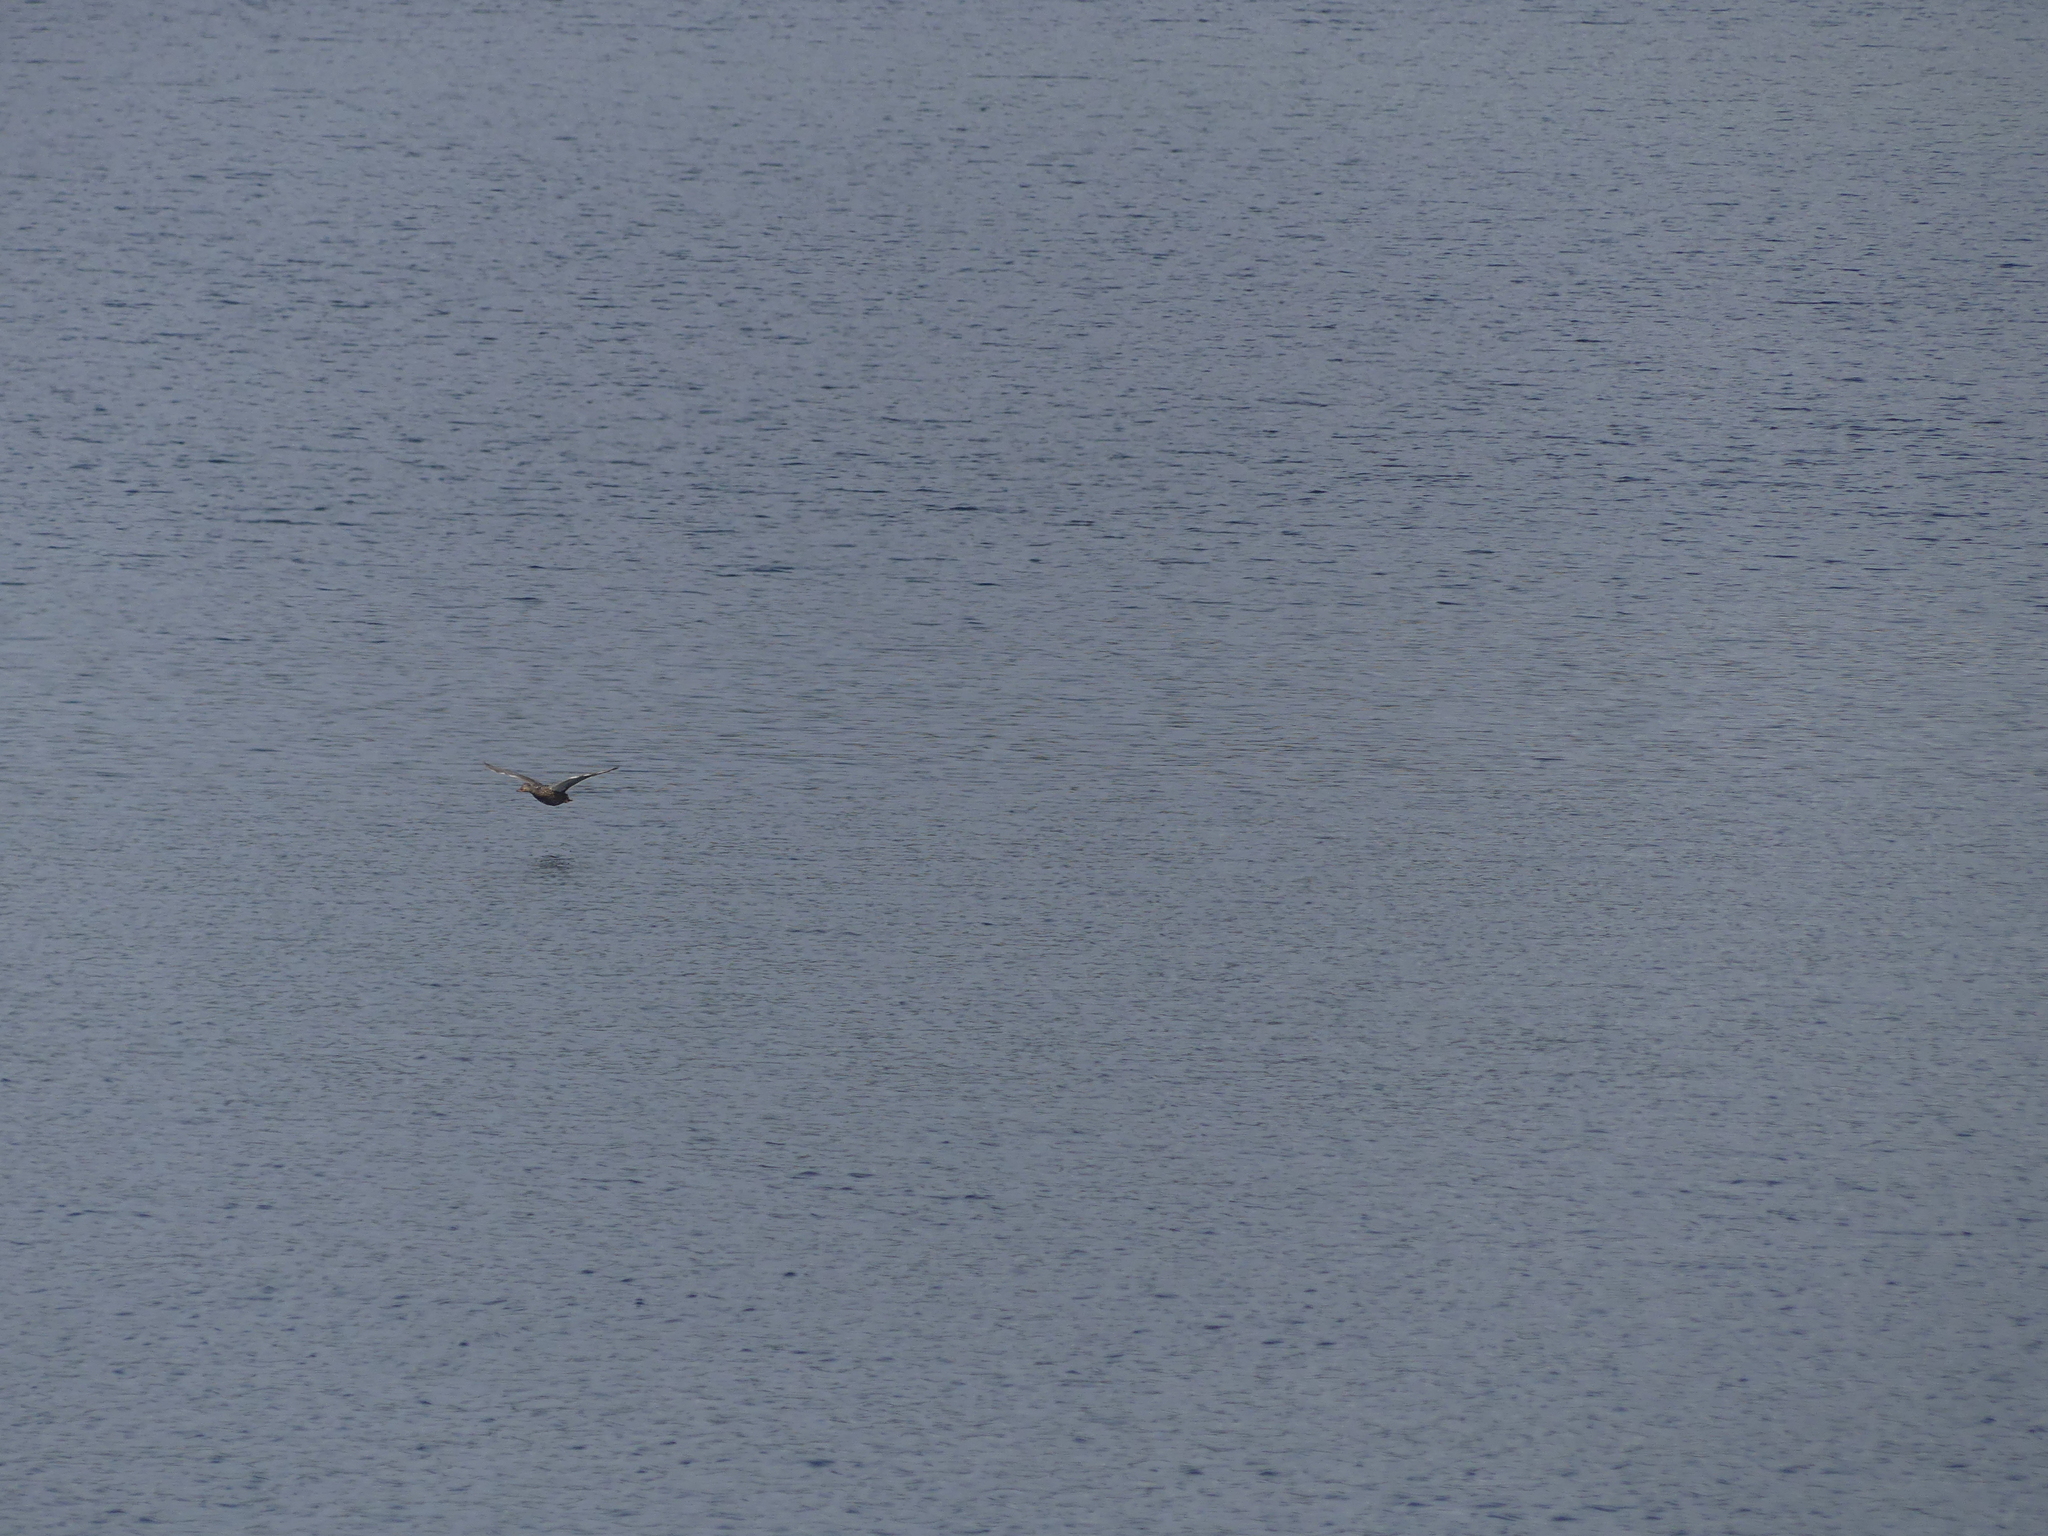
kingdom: Animalia
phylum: Chordata
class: Aves
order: Anseriformes
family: Anatidae
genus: Anas
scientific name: Anas platyrhynchos
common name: Mallard
